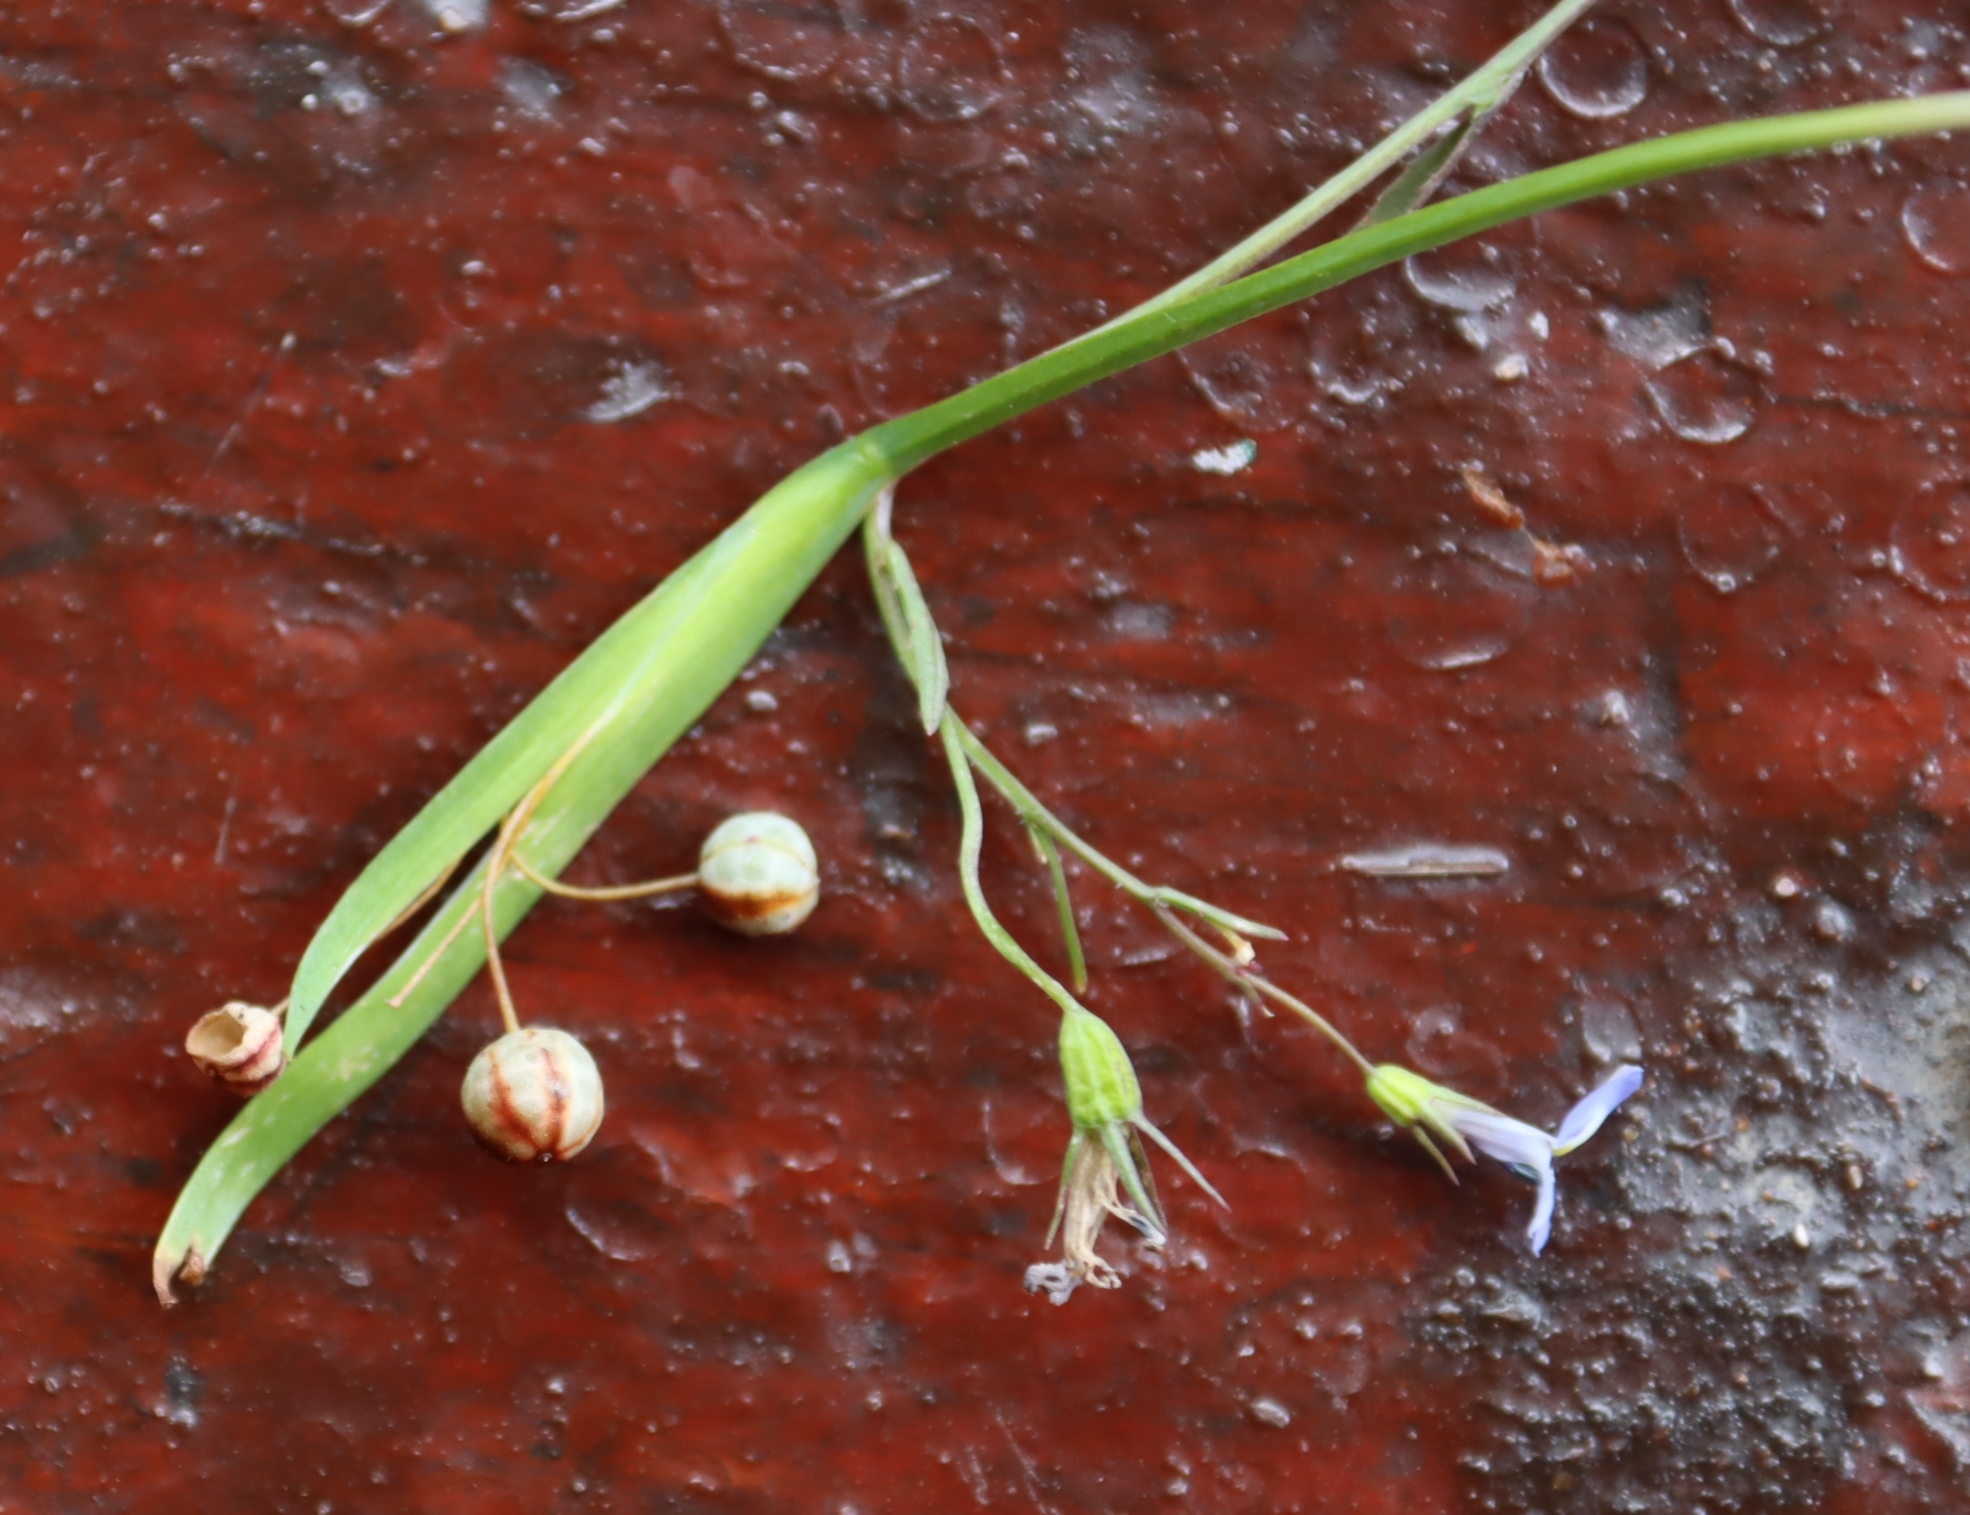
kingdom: Plantae
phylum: Tracheophyta
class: Liliopsida
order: Asparagales
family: Iridaceae
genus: Sisyrinchium
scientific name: Sisyrinchium micranthum
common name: Bermuda pigroot
